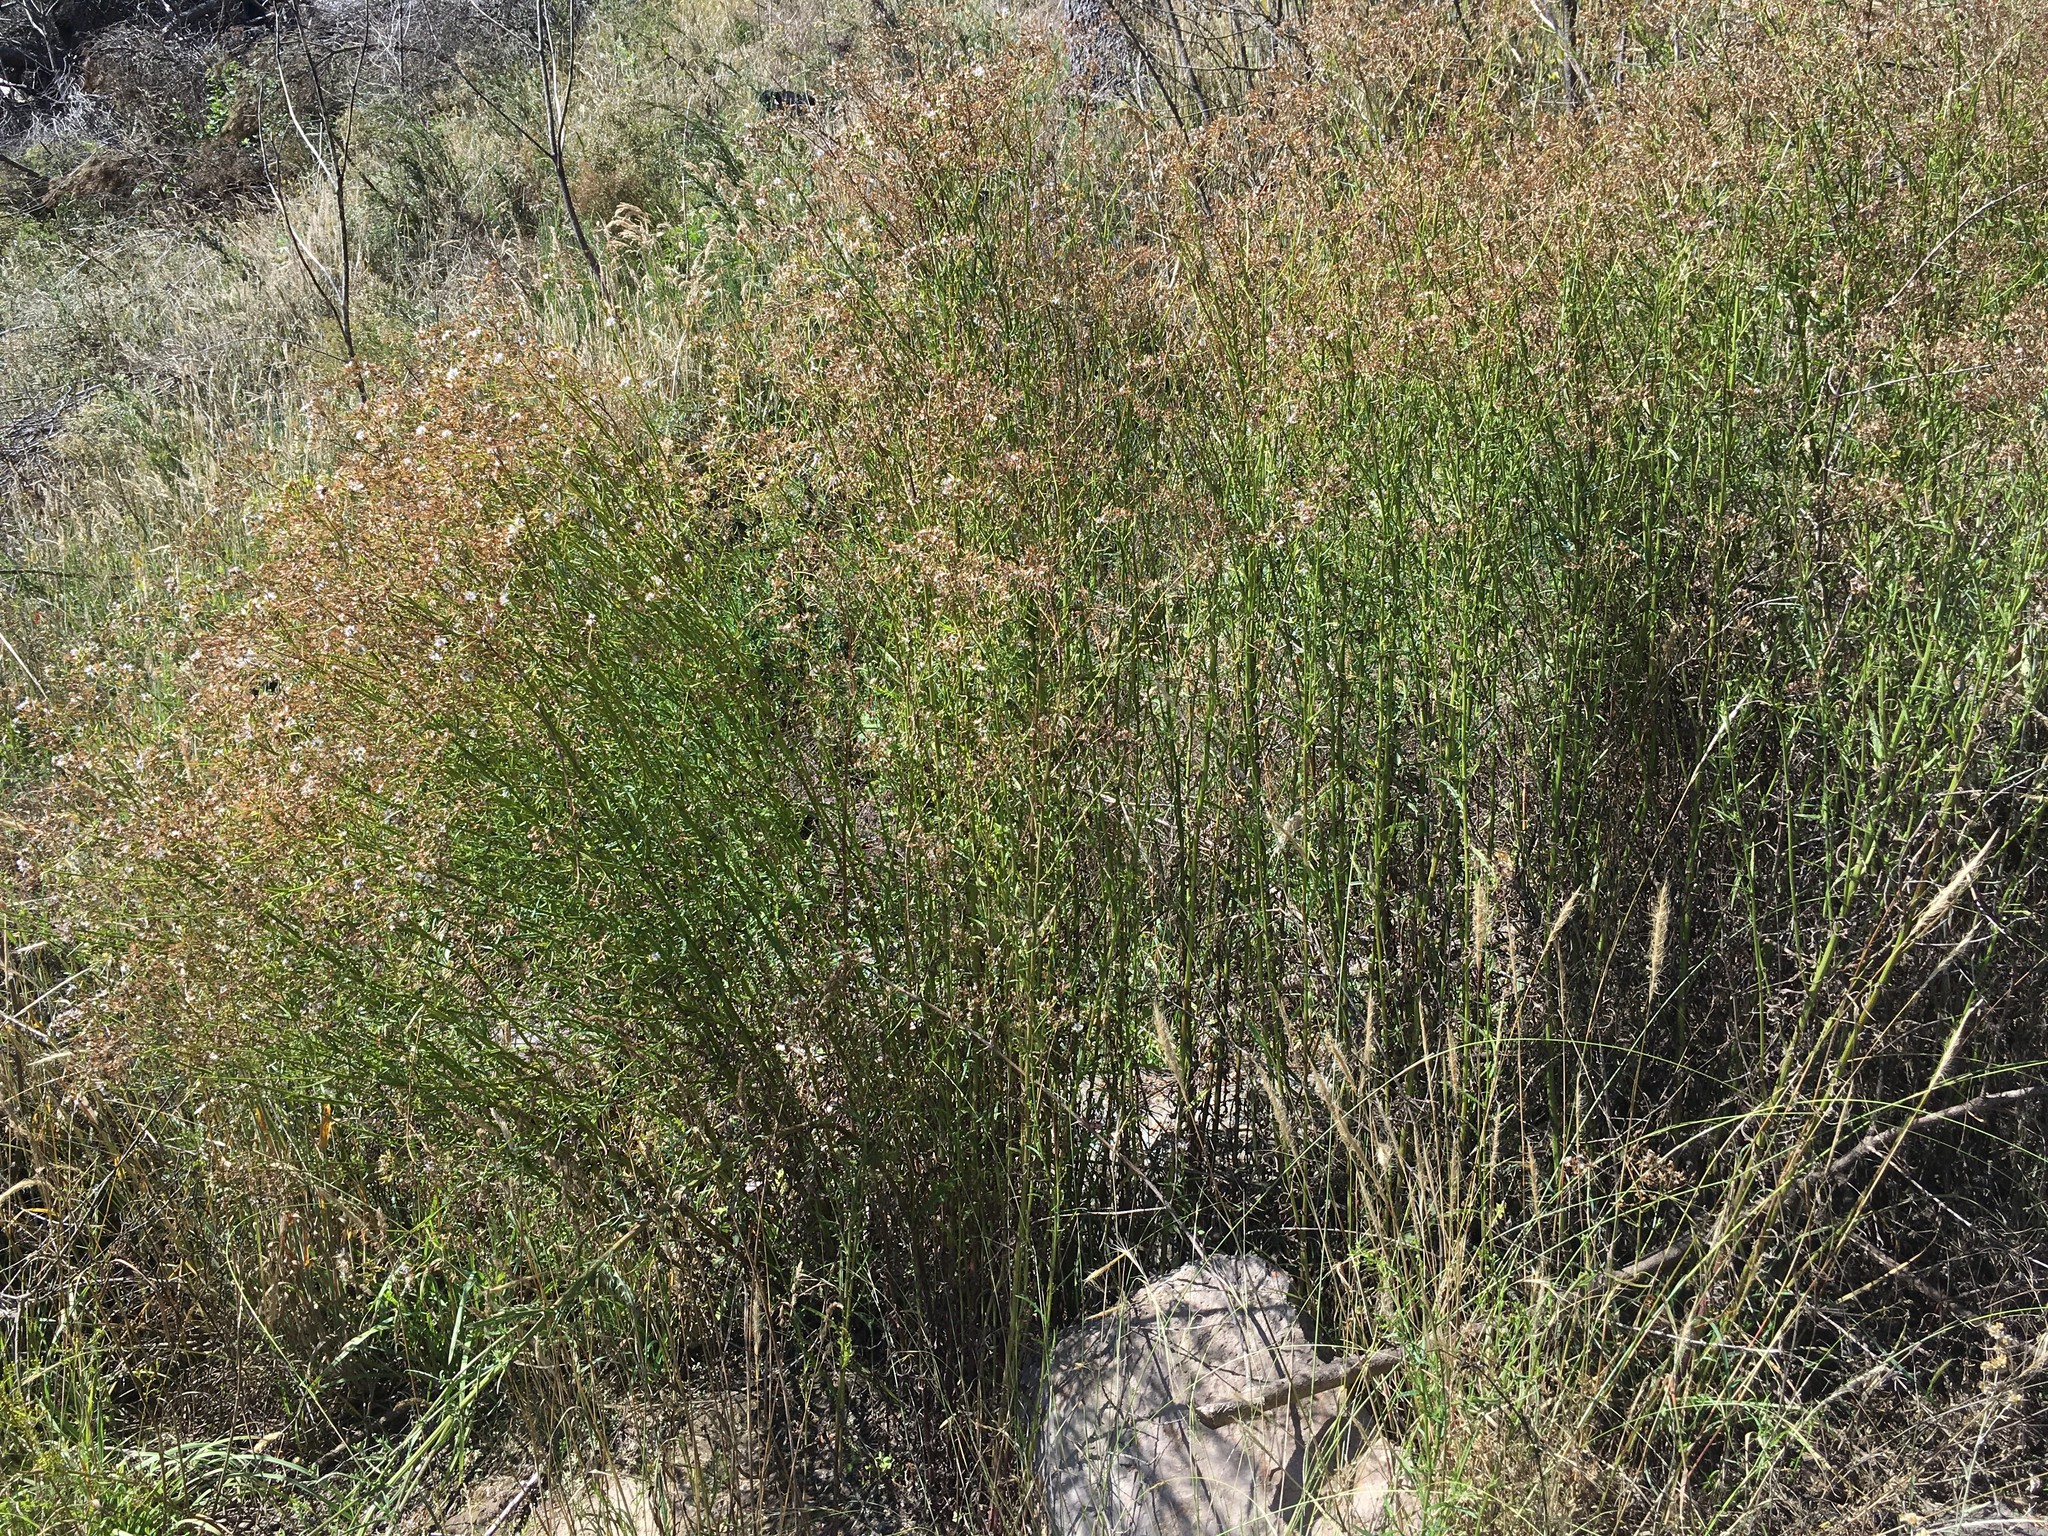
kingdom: Plantae
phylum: Tracheophyta
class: Magnoliopsida
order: Asterales
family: Asteraceae
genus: Senecio
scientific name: Senecio hispidulus
